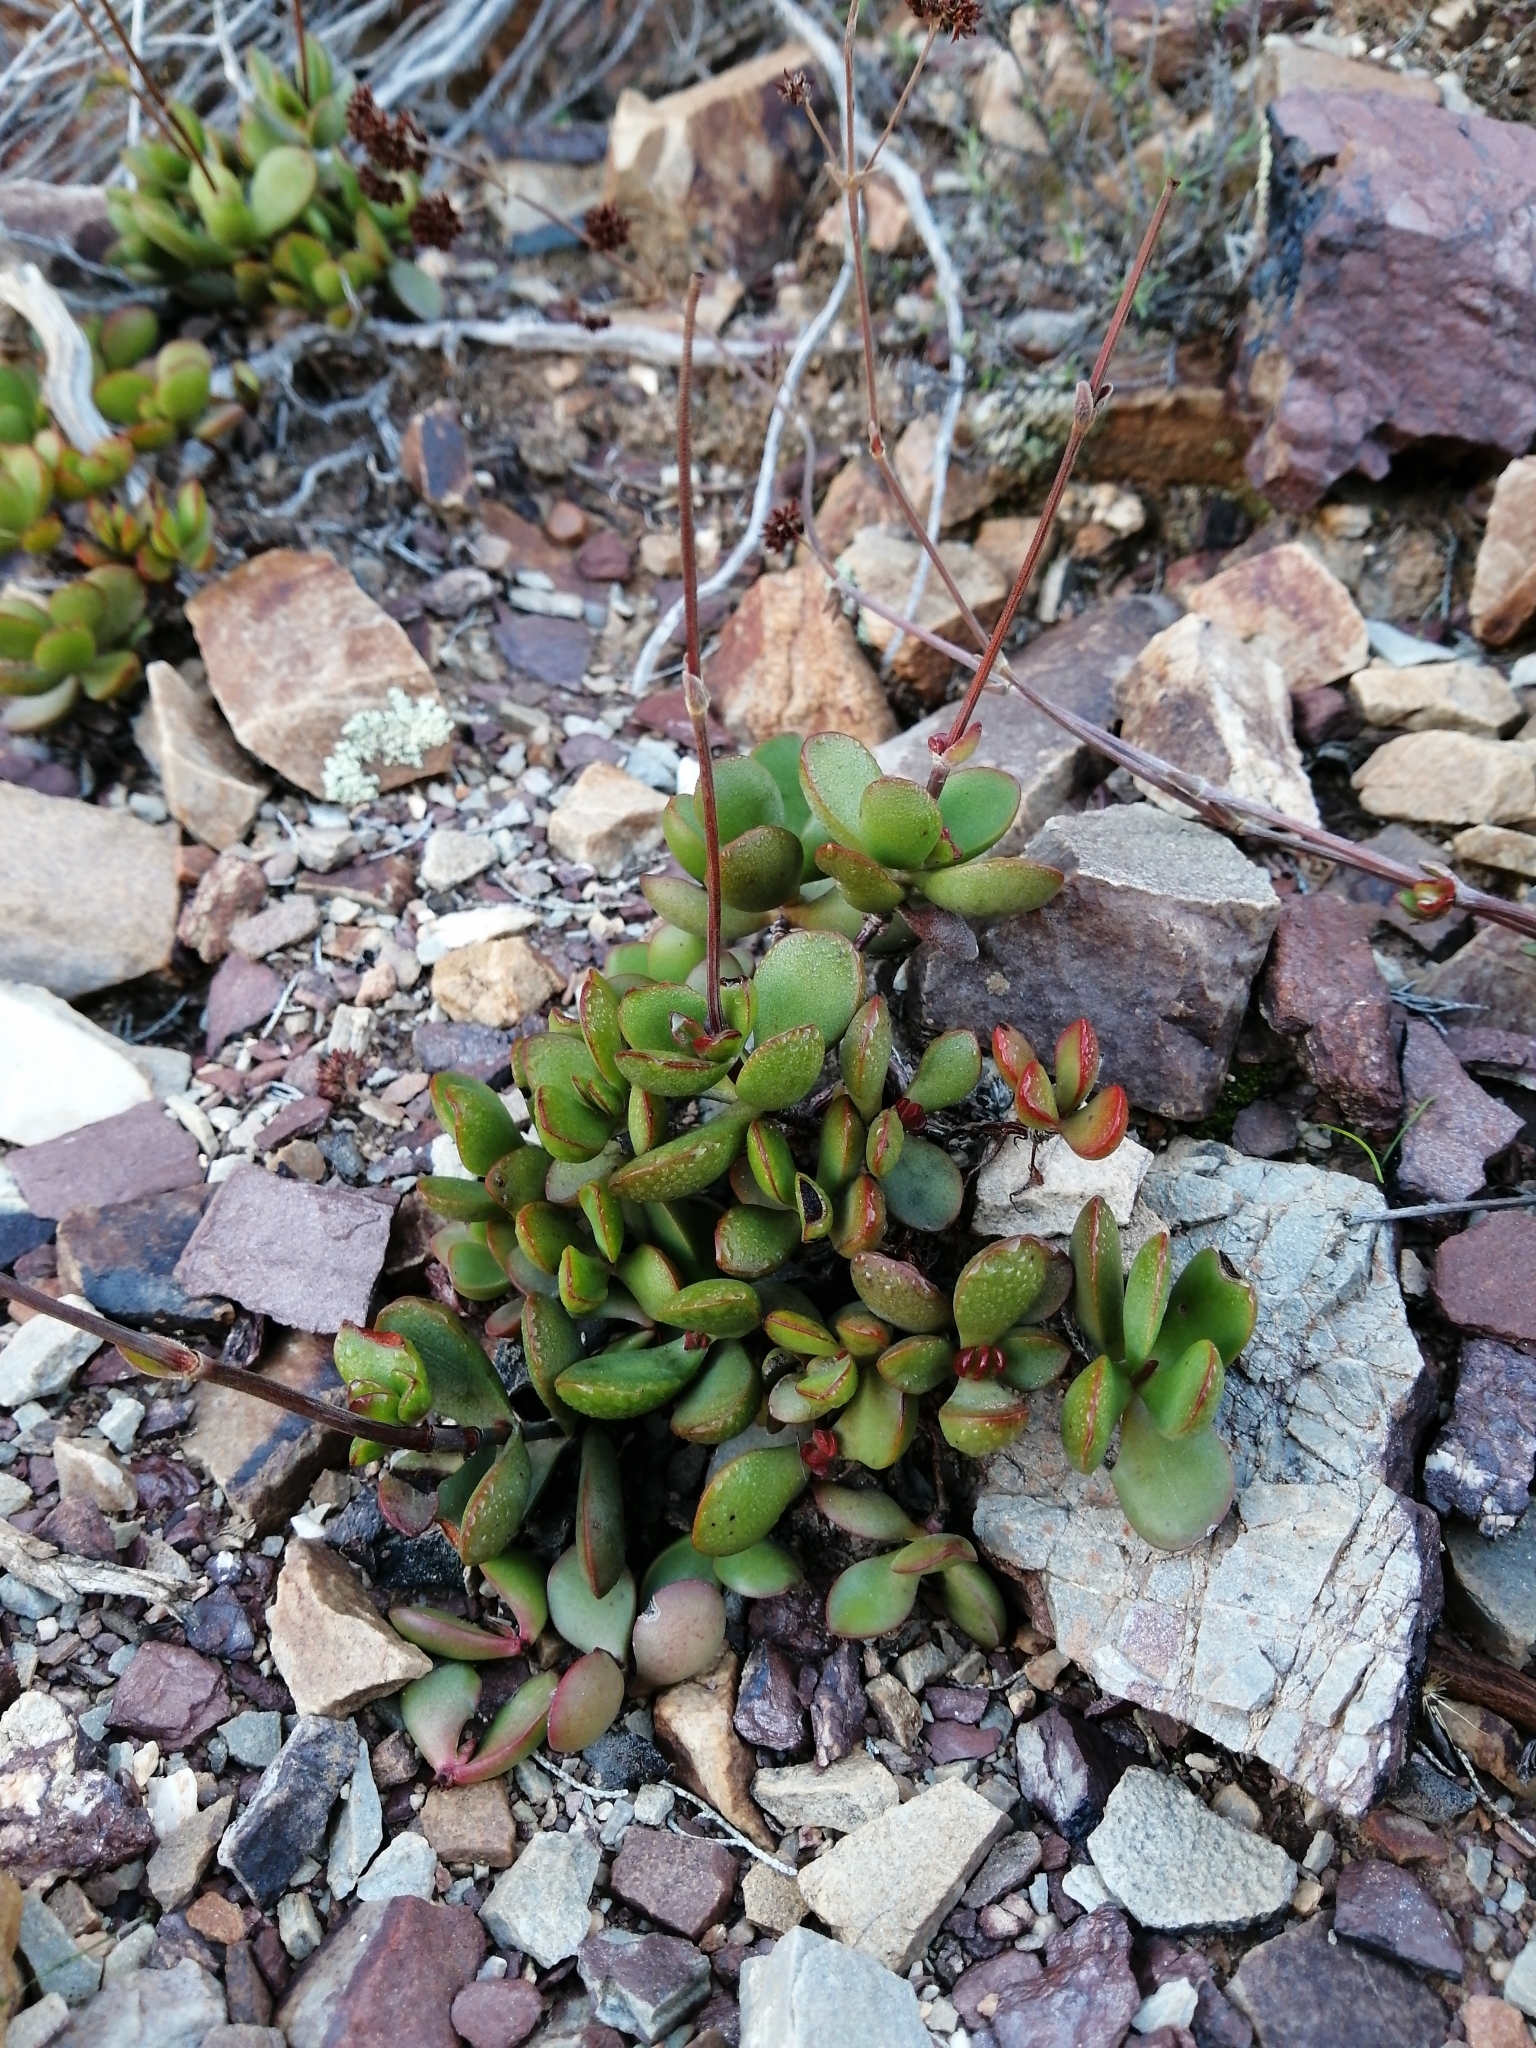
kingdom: Plantae
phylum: Tracheophyta
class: Magnoliopsida
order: Saxifragales
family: Crassulaceae
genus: Crassula
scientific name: Crassula atropurpurea
